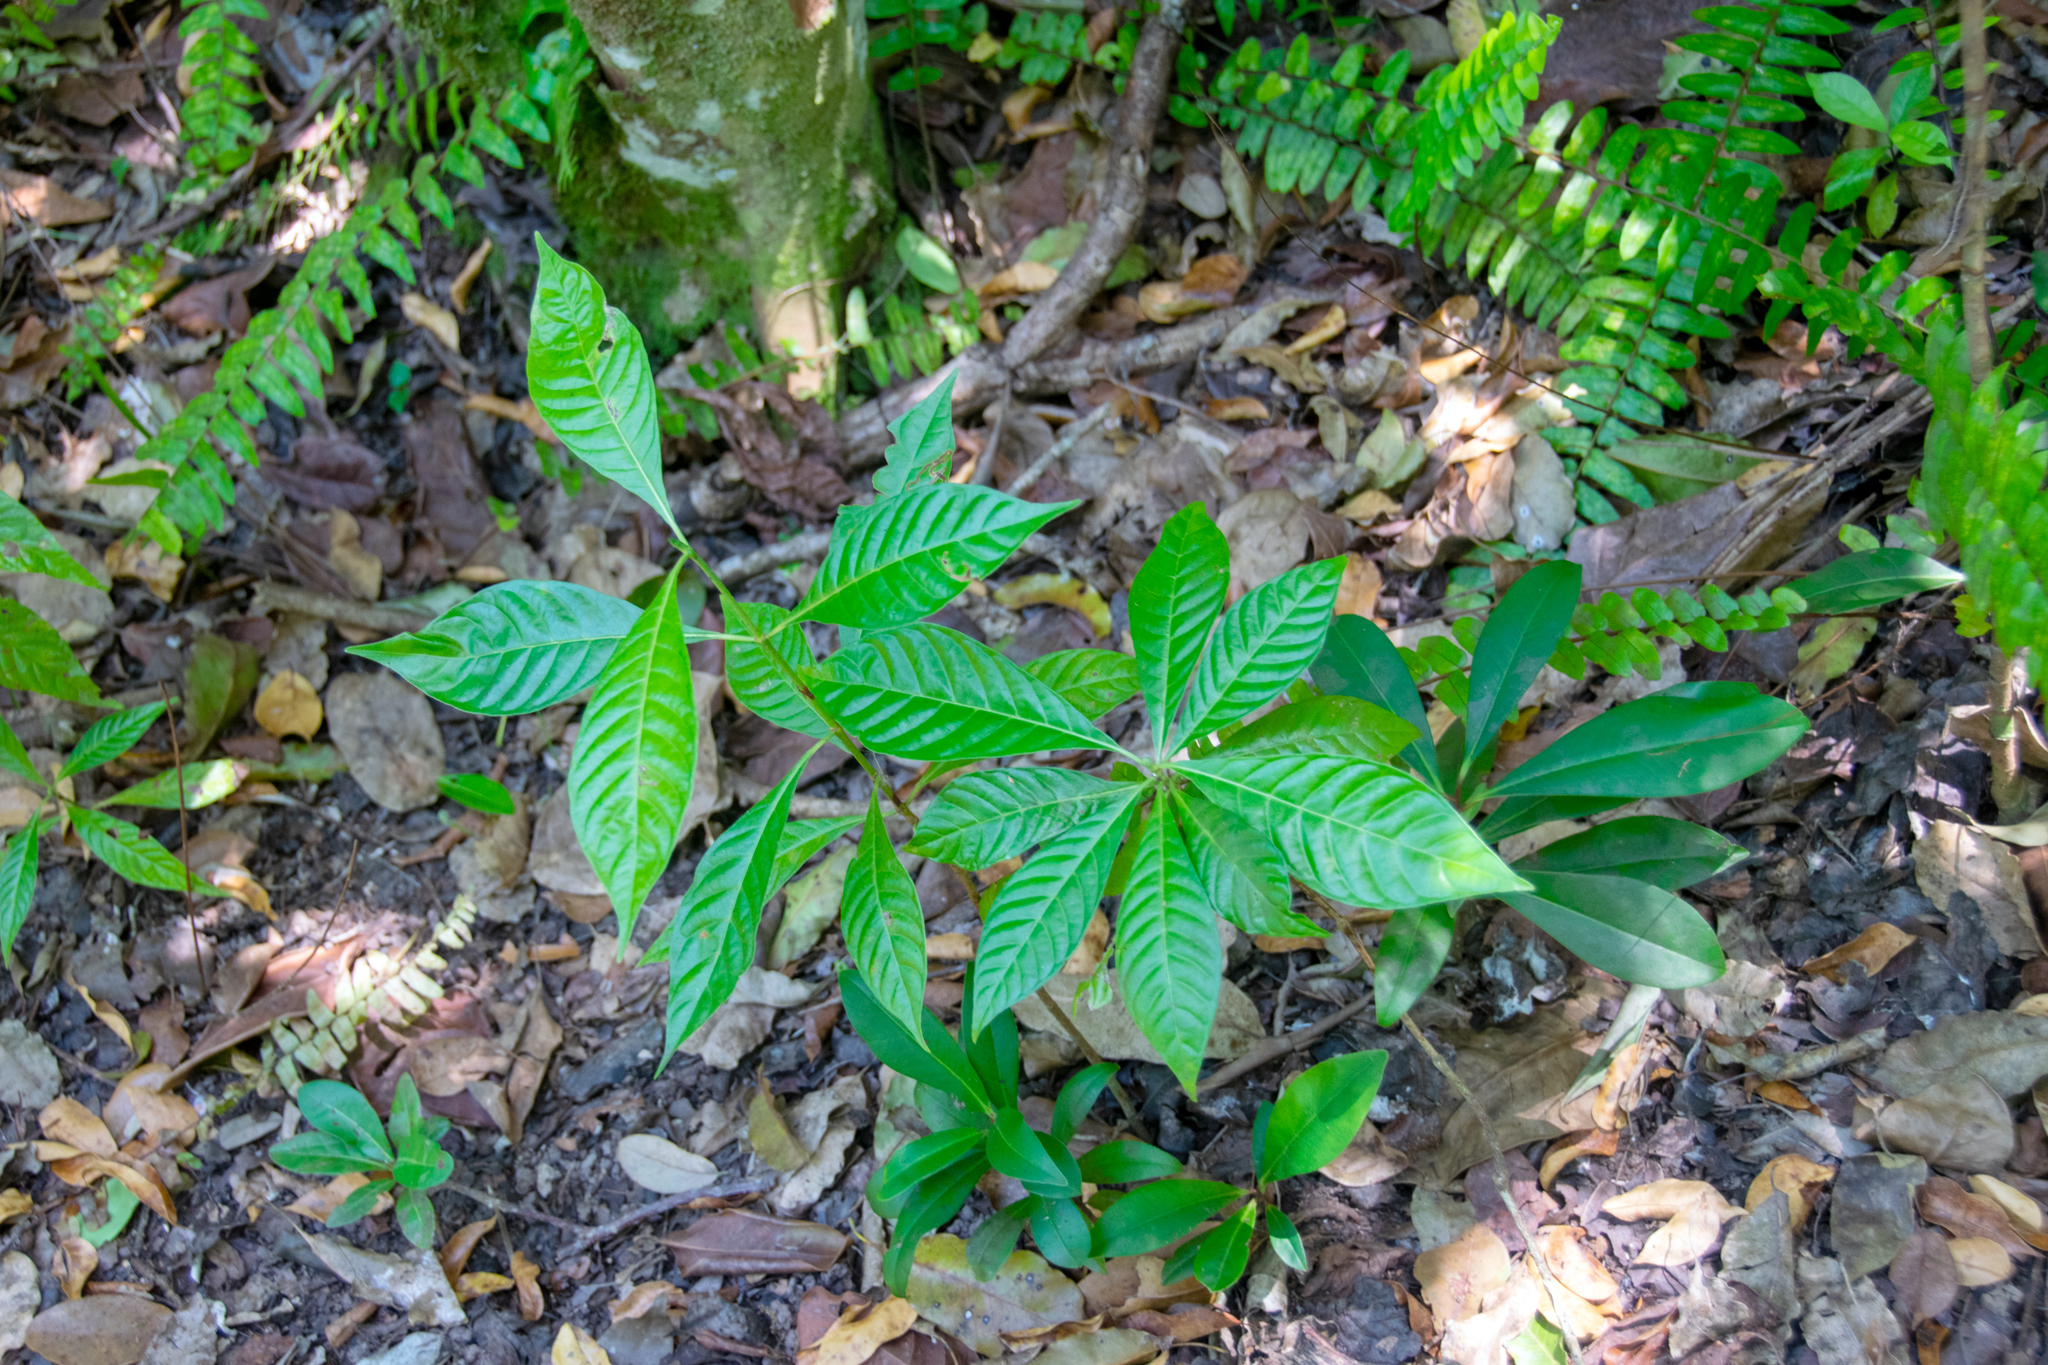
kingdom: Plantae
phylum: Tracheophyta
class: Magnoliopsida
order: Gentianales
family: Rubiaceae
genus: Psychotria
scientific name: Psychotria nervosa
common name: Bastard cankerberry
